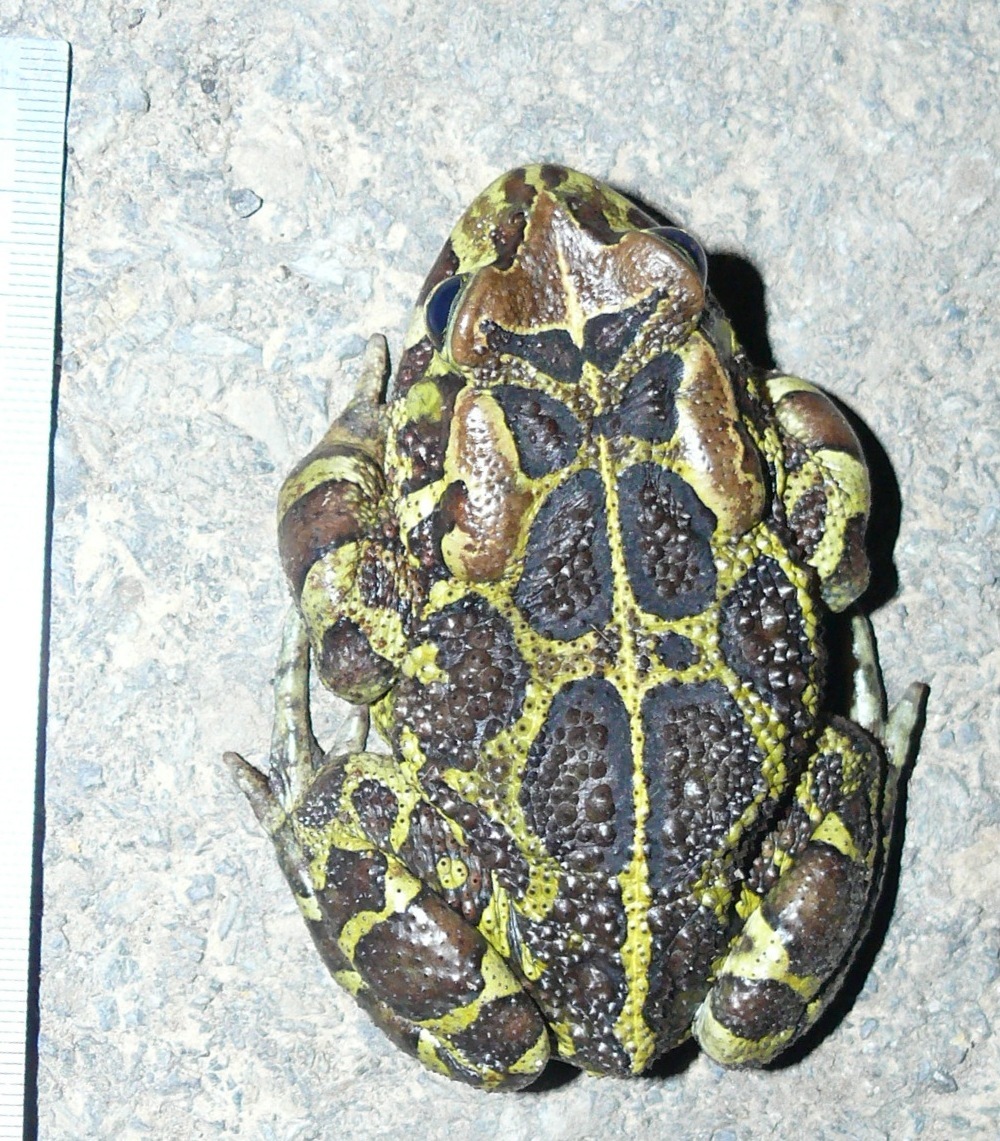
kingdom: Animalia
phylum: Chordata
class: Amphibia
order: Anura
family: Bufonidae
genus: Sclerophrys
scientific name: Sclerophrys pantherina
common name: Panther toad
